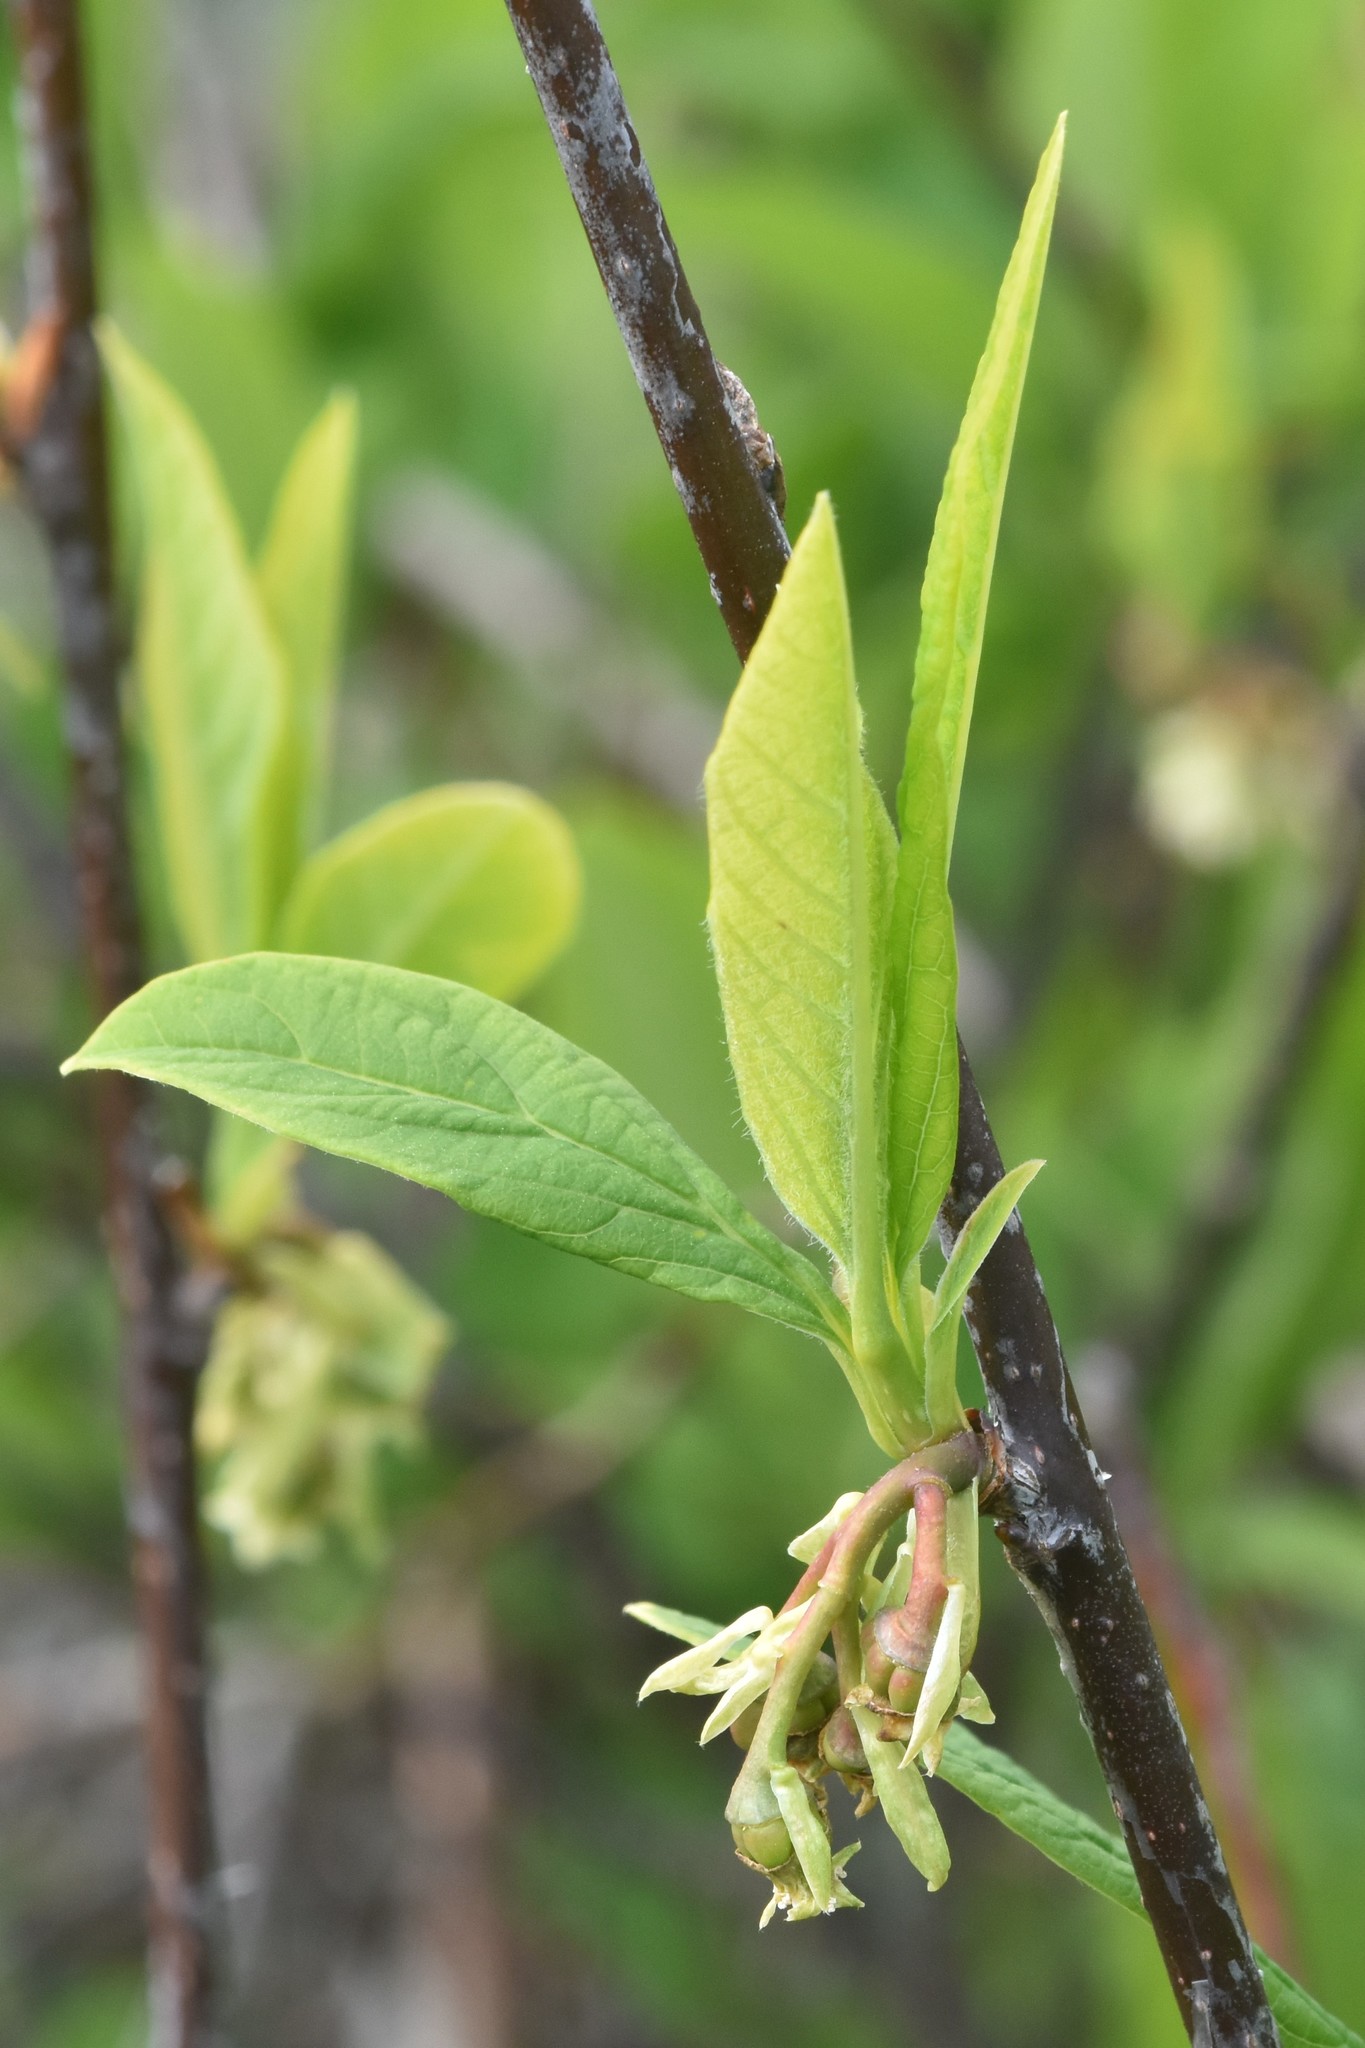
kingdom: Plantae
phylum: Tracheophyta
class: Magnoliopsida
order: Rosales
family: Rosaceae
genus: Oemleria
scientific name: Oemleria cerasiformis
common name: Osoberry
